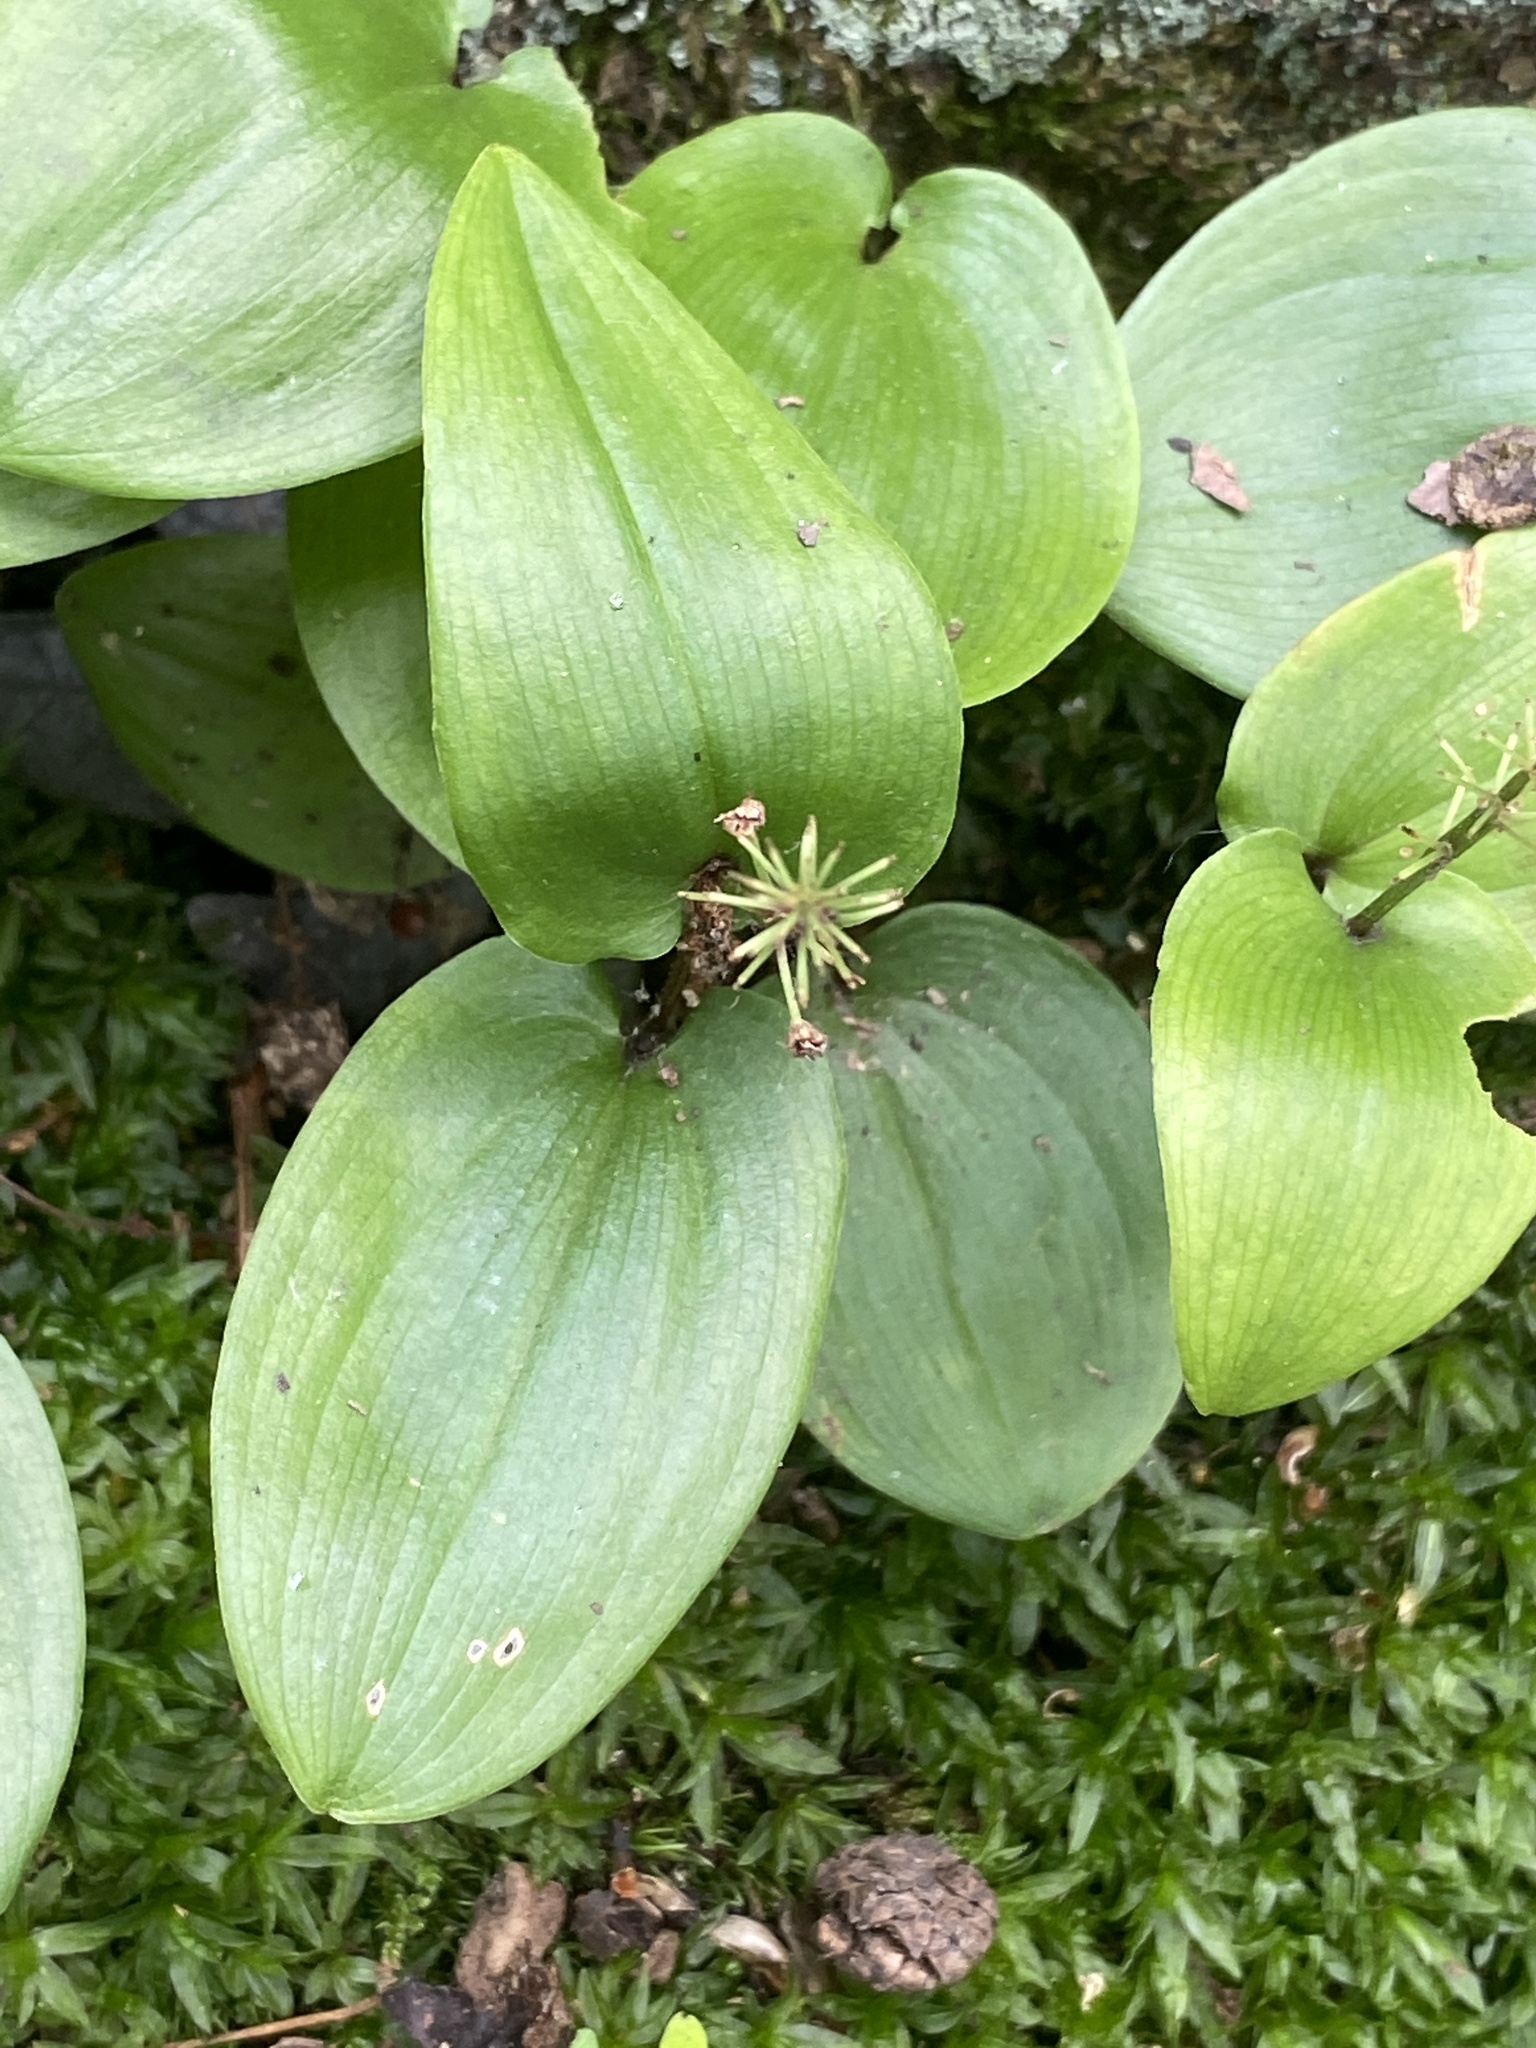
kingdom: Plantae
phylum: Tracheophyta
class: Liliopsida
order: Asparagales
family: Asparagaceae
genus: Maianthemum
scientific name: Maianthemum canadense
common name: False lily-of-the-valley
